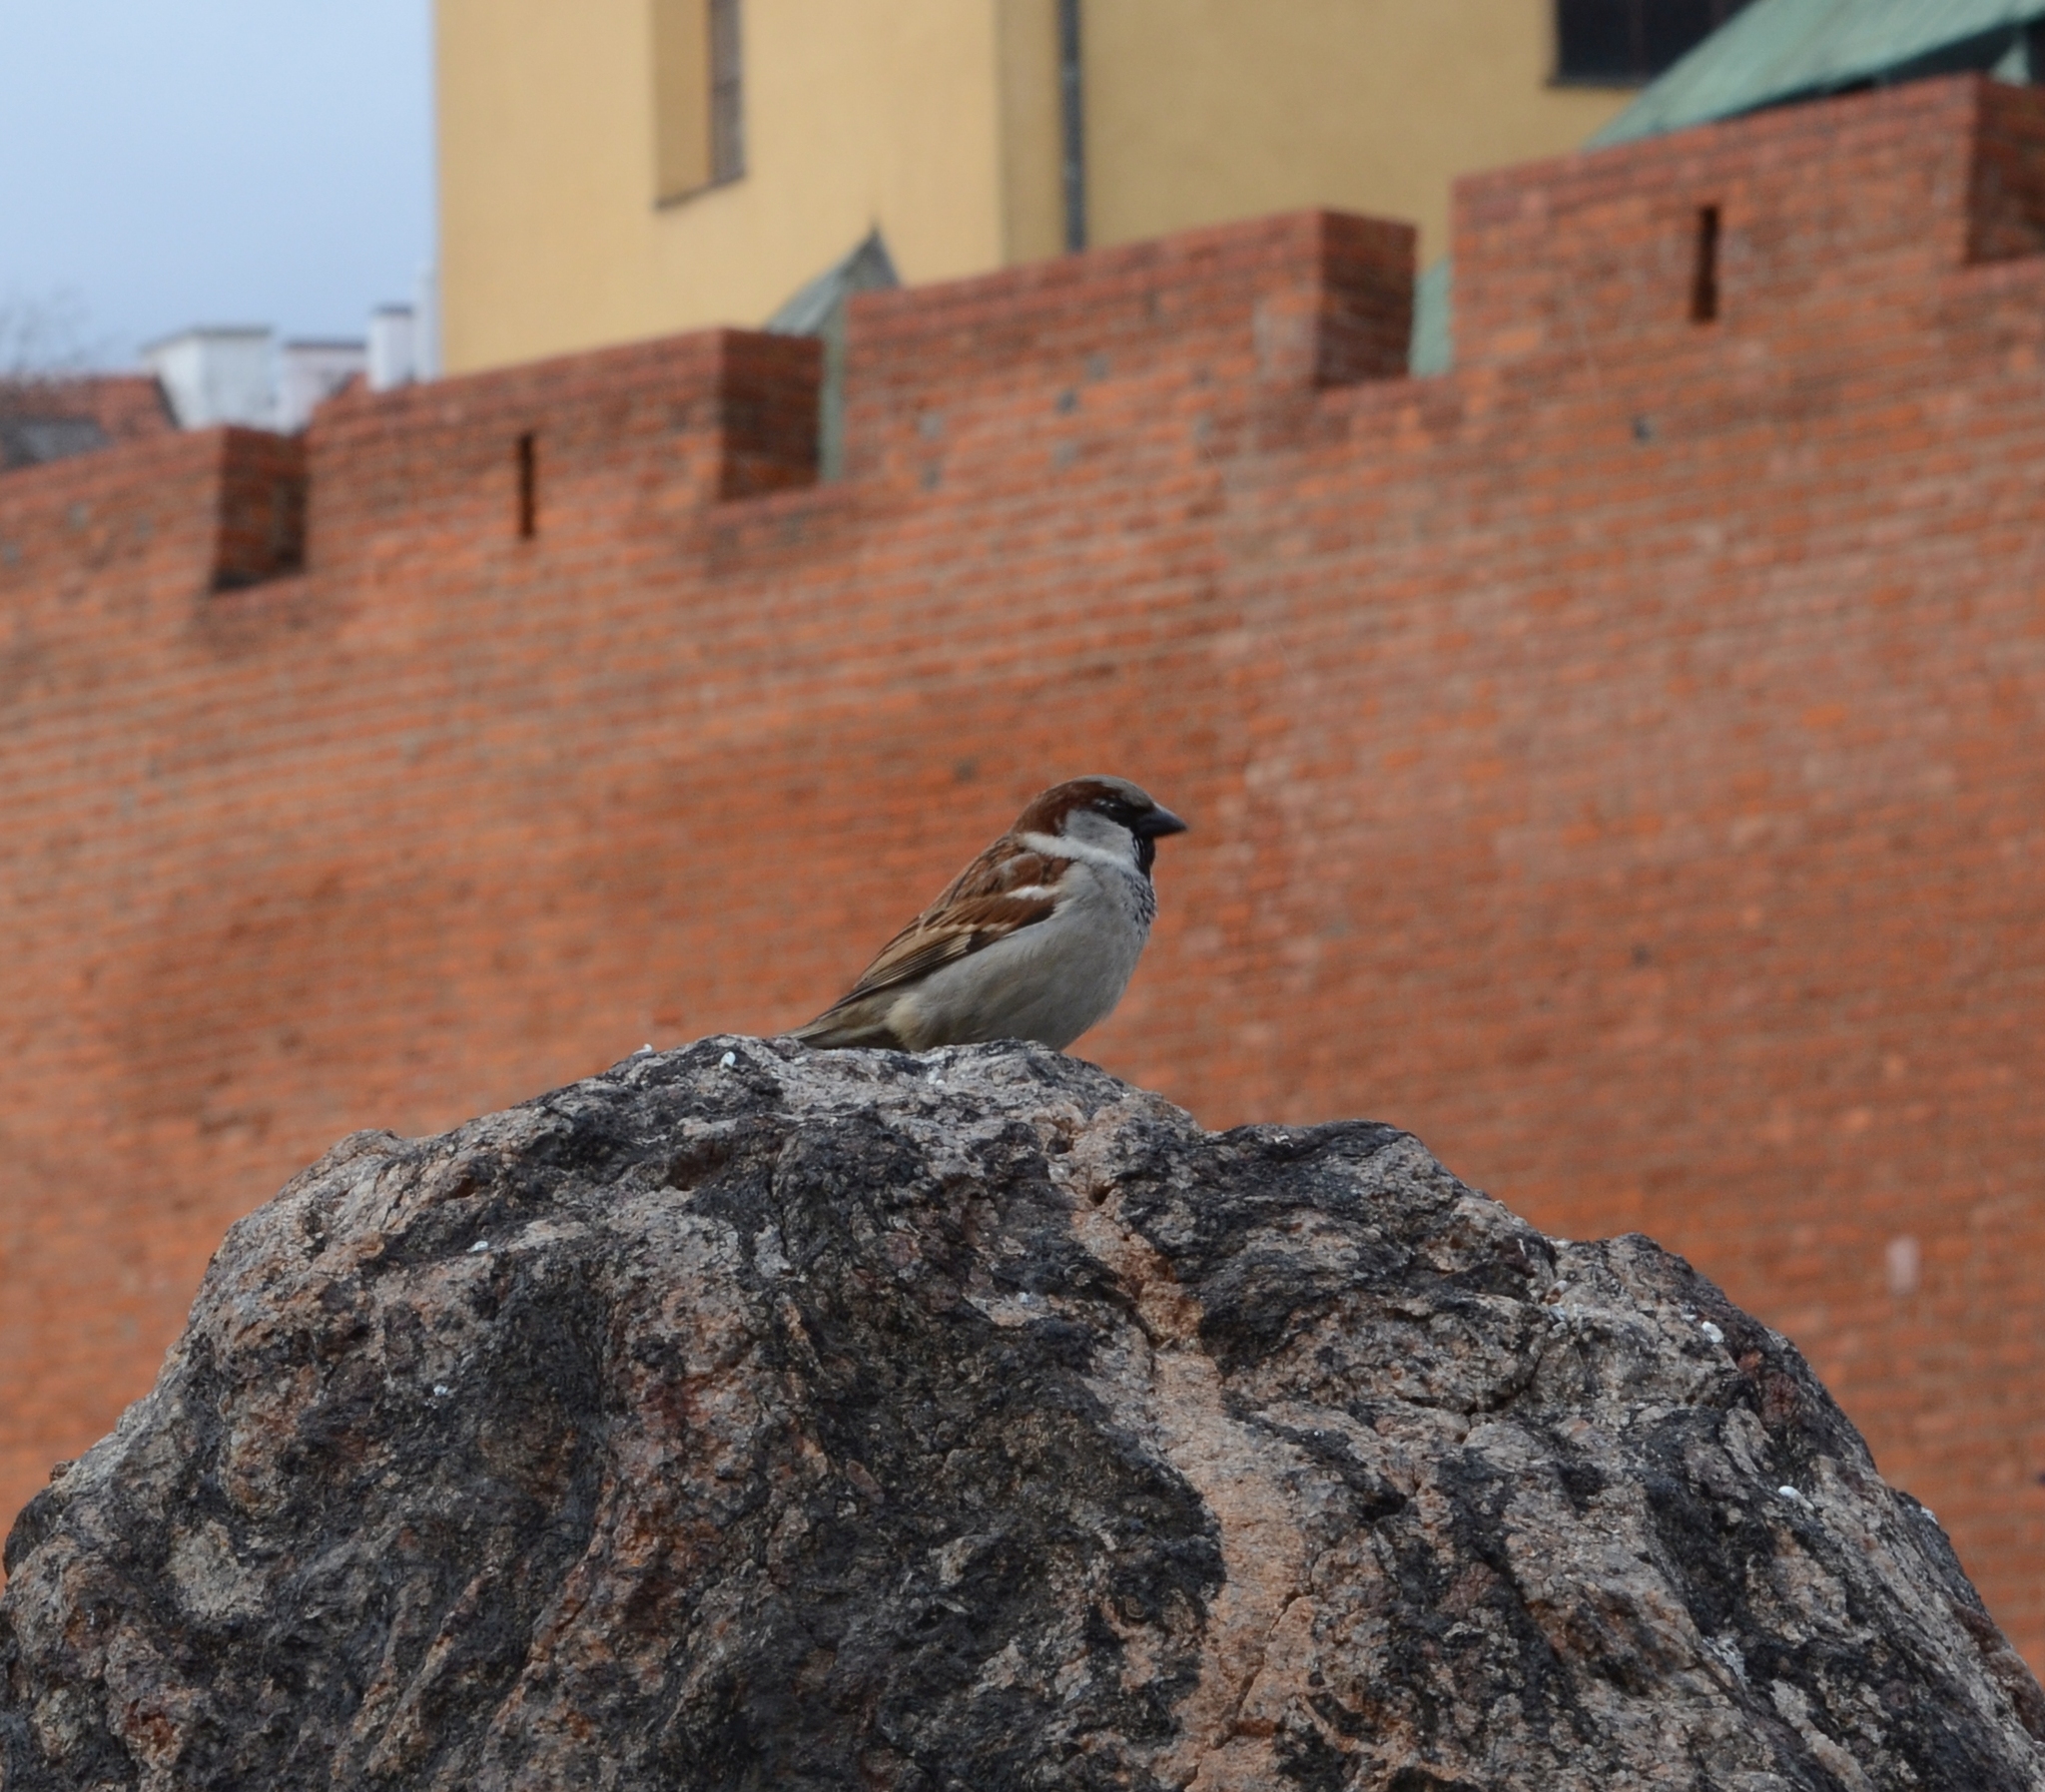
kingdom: Animalia
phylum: Chordata
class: Aves
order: Passeriformes
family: Passeridae
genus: Passer
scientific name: Passer domesticus
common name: House sparrow
